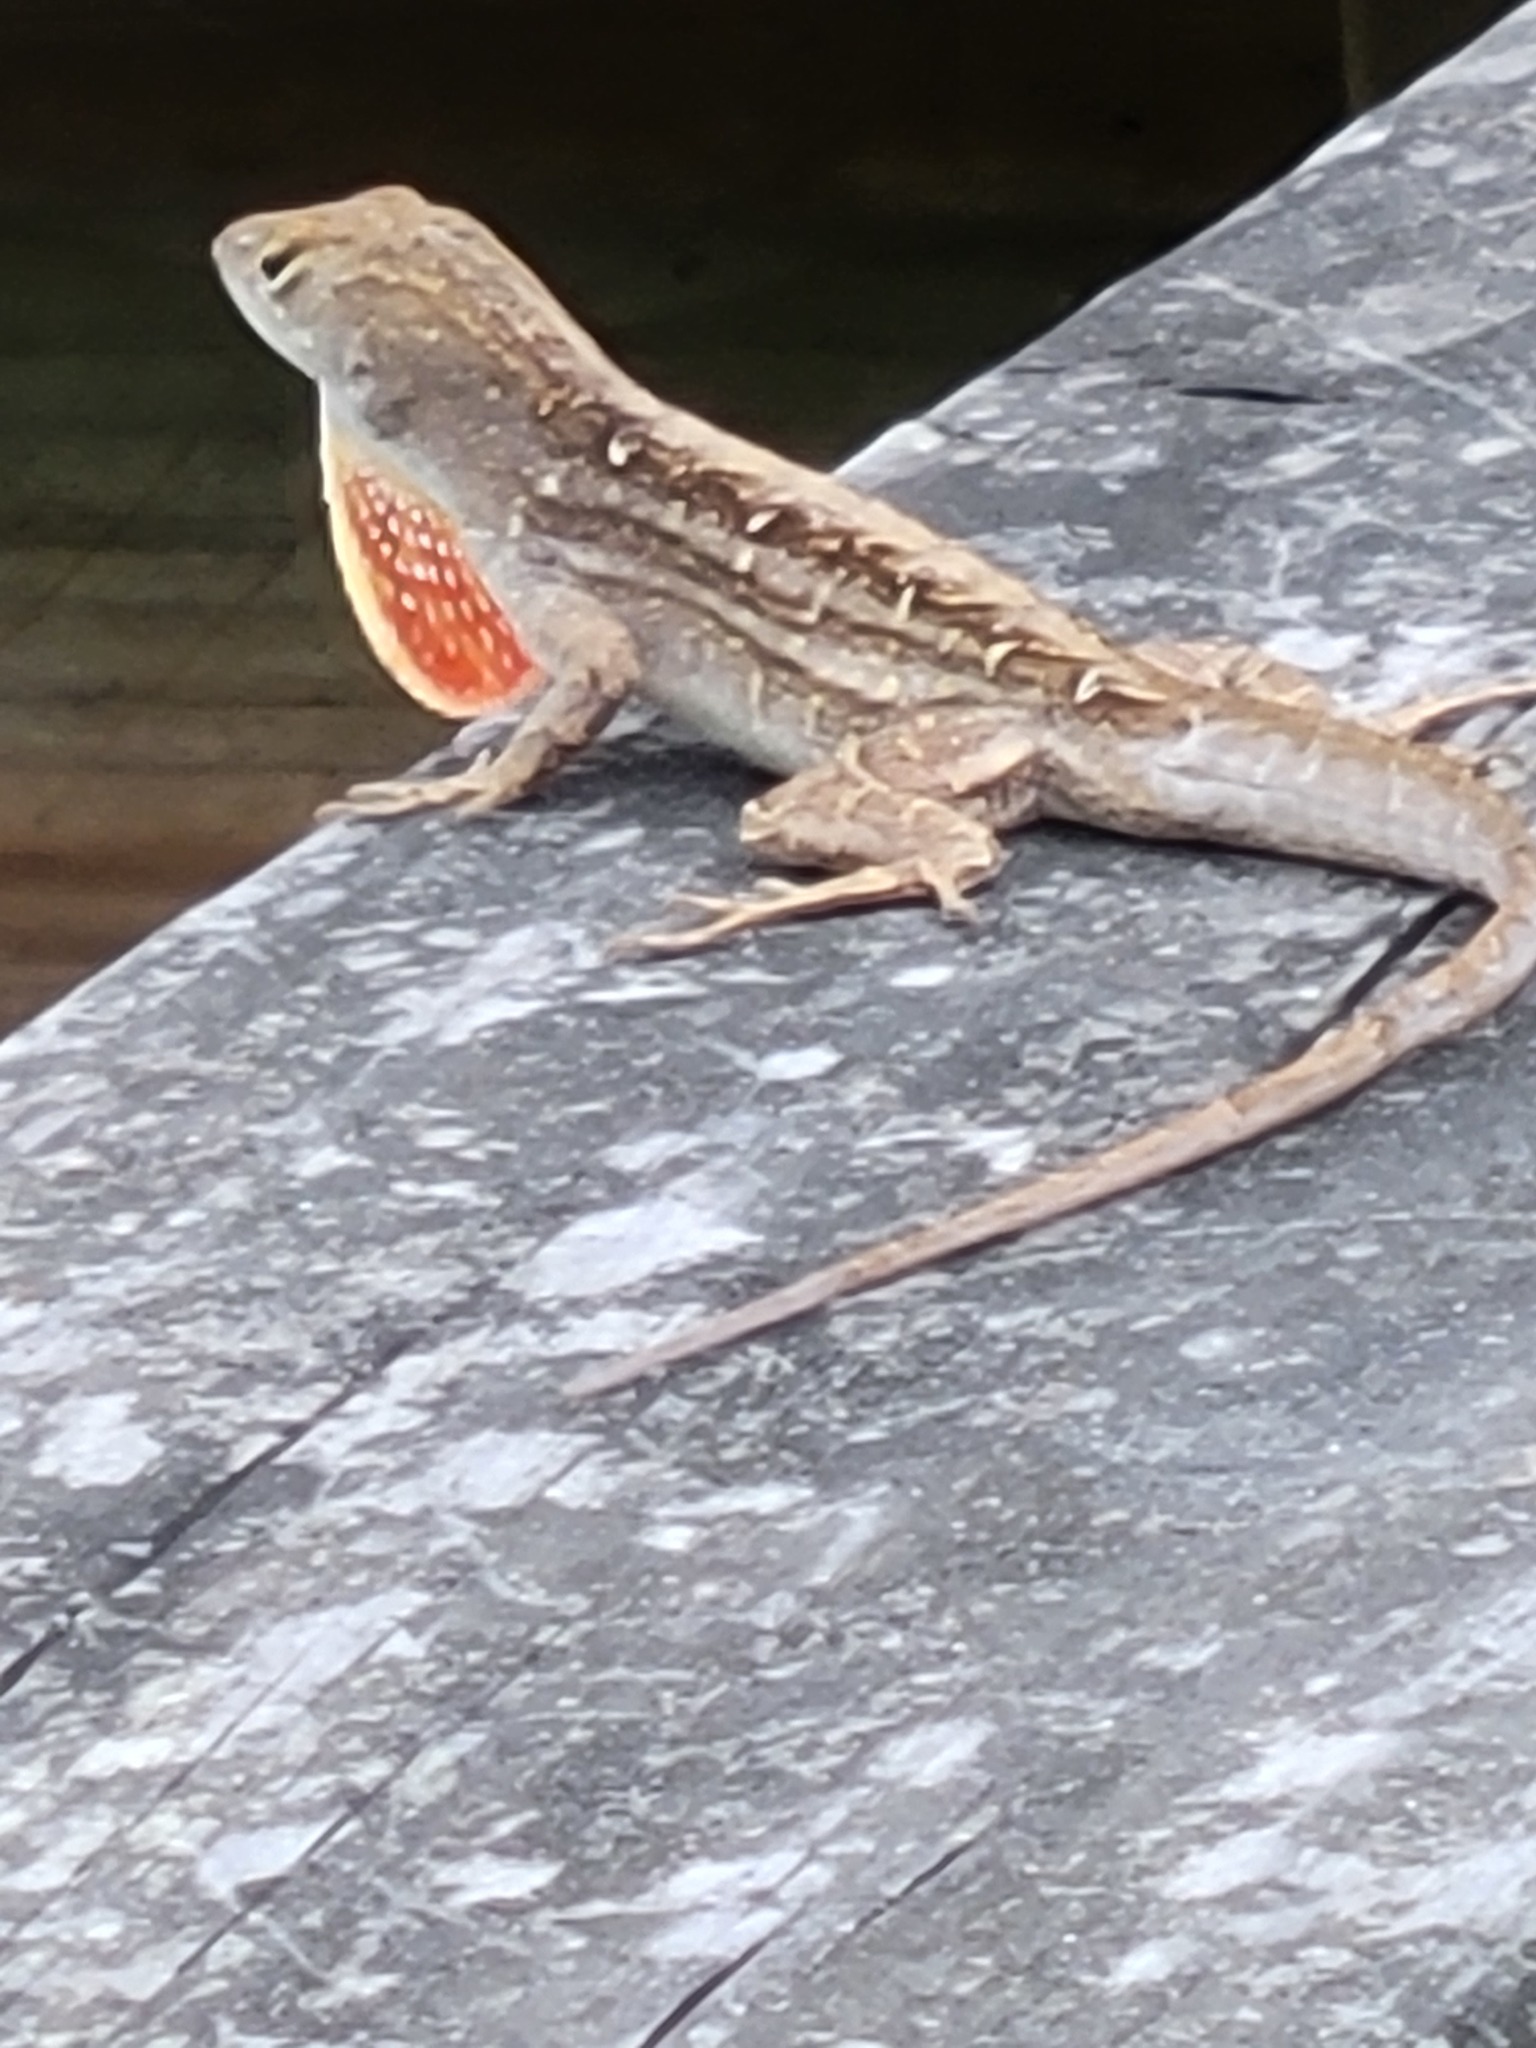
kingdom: Animalia
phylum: Chordata
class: Squamata
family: Dactyloidae
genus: Anolis
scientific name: Anolis sagrei
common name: Brown anole
